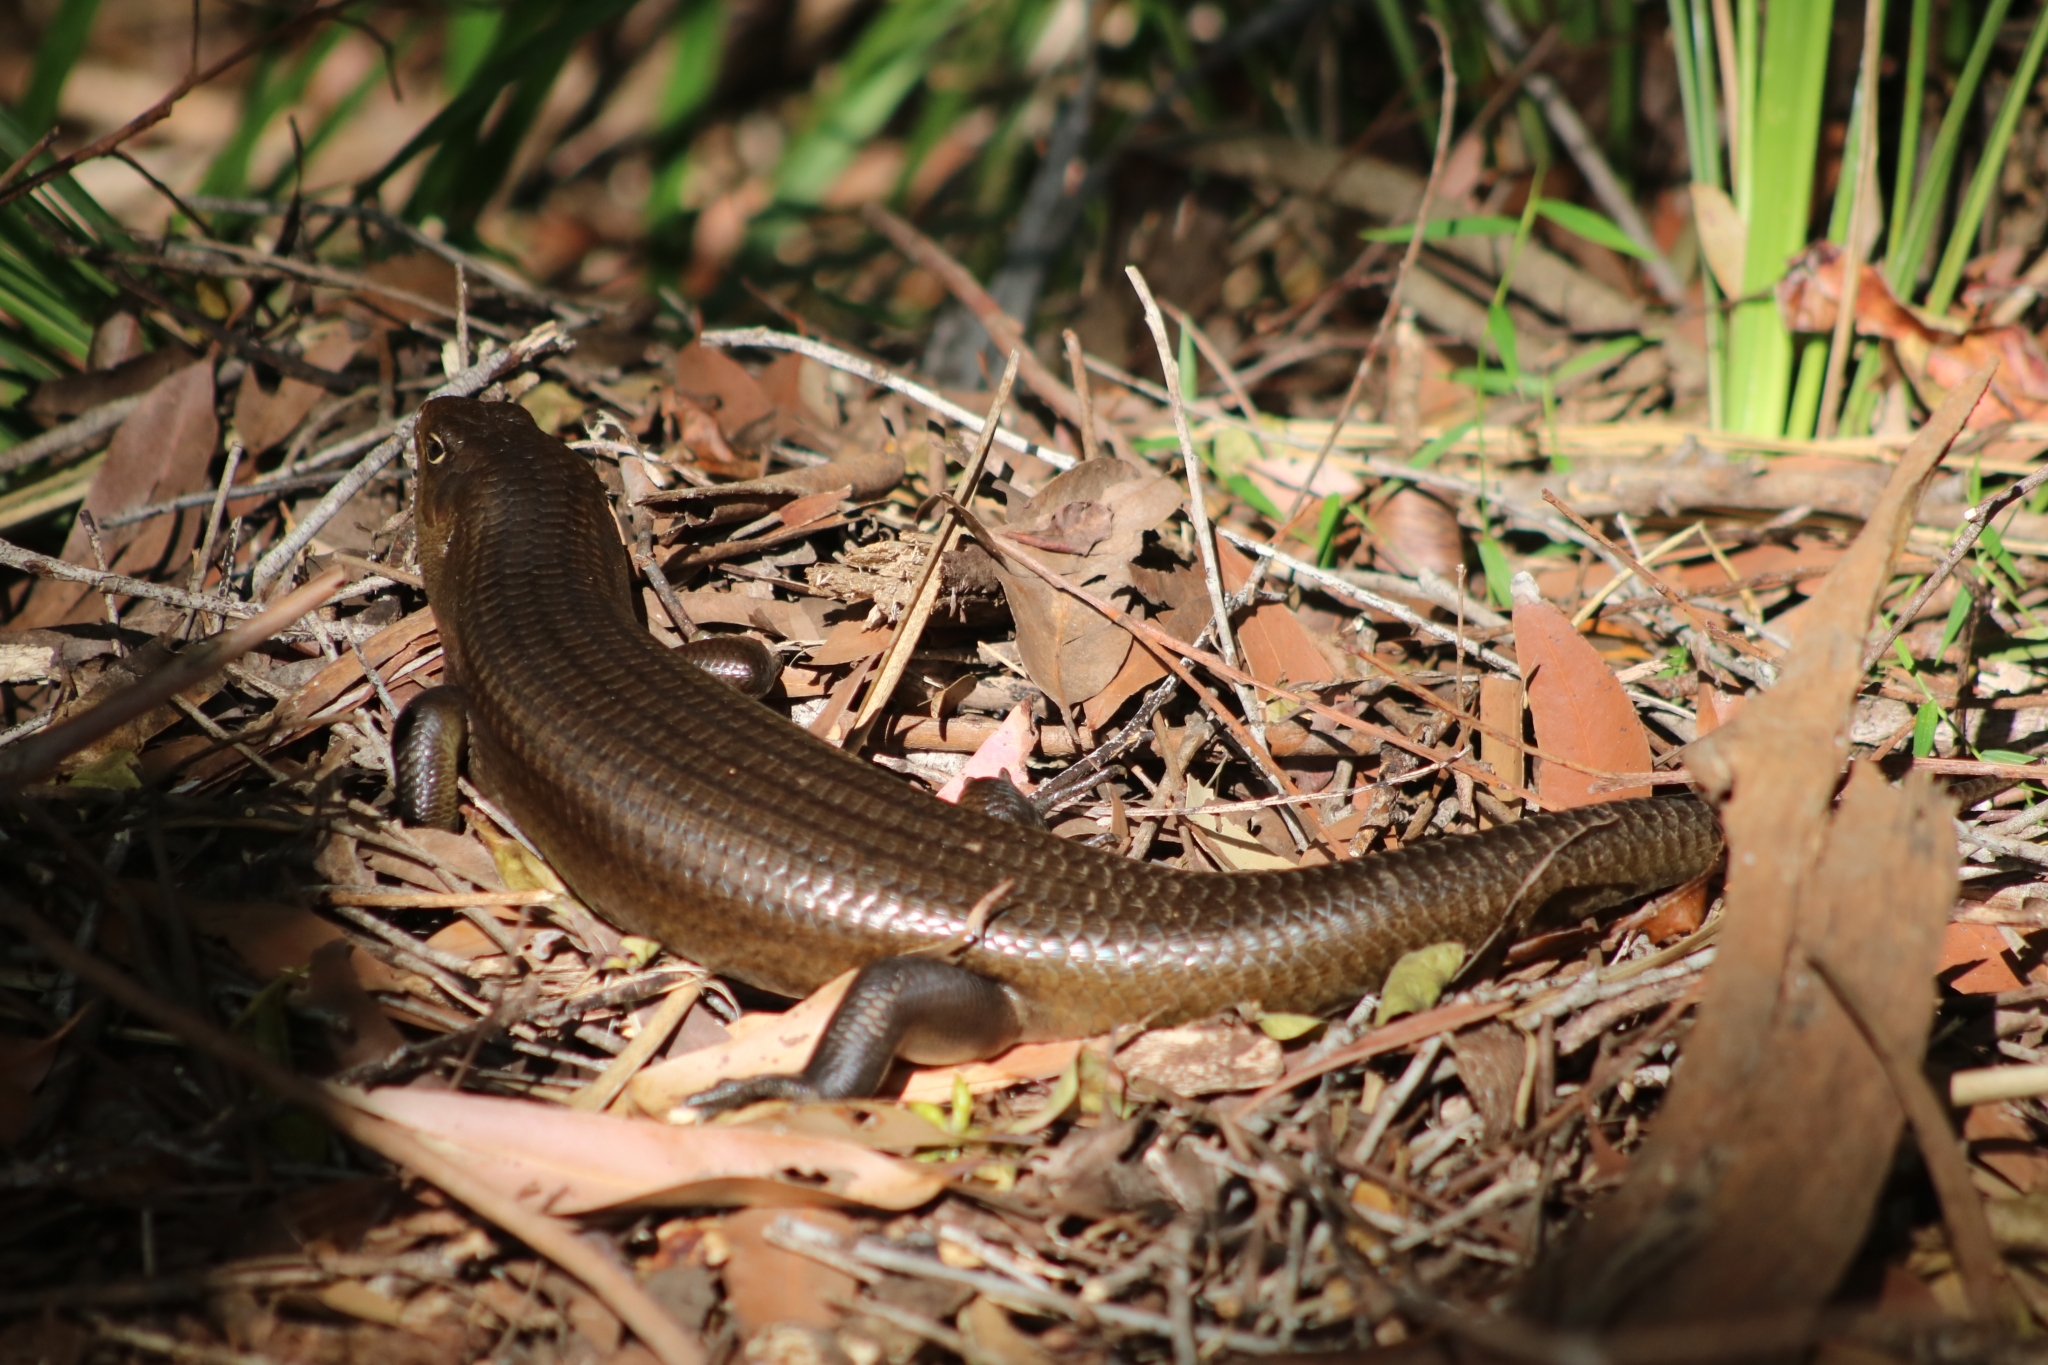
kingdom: Animalia
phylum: Chordata
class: Squamata
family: Scincidae
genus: Bellatorias
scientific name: Bellatorias major
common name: Land mullet
